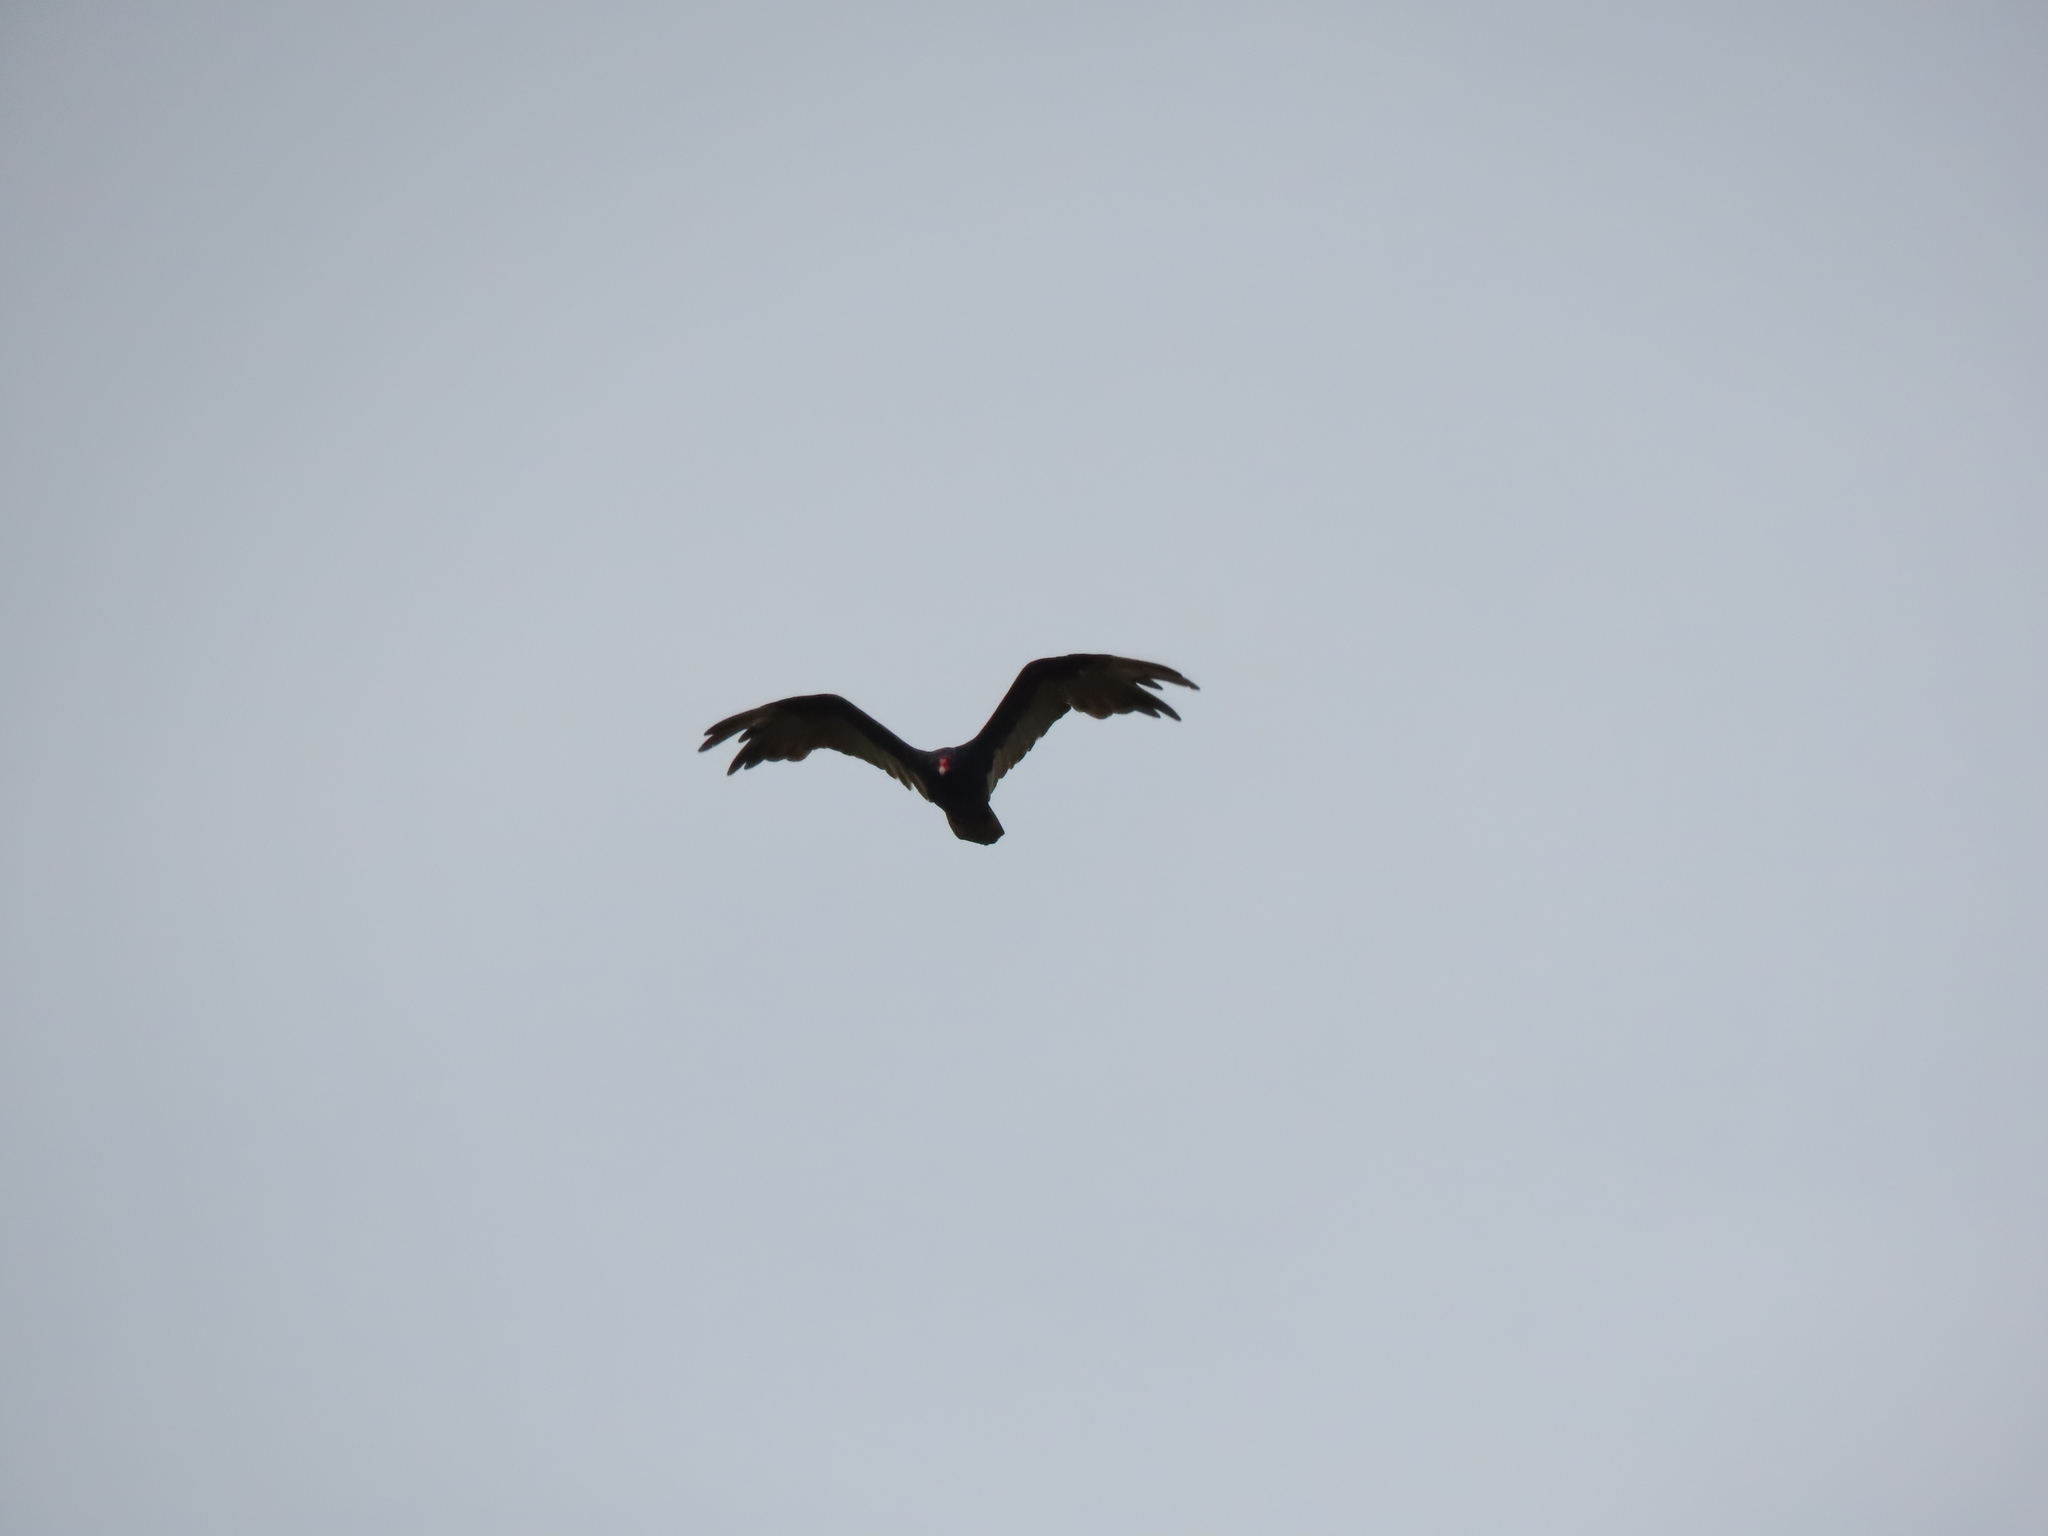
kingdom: Animalia
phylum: Chordata
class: Aves
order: Accipitriformes
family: Cathartidae
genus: Cathartes
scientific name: Cathartes aura
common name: Turkey vulture
